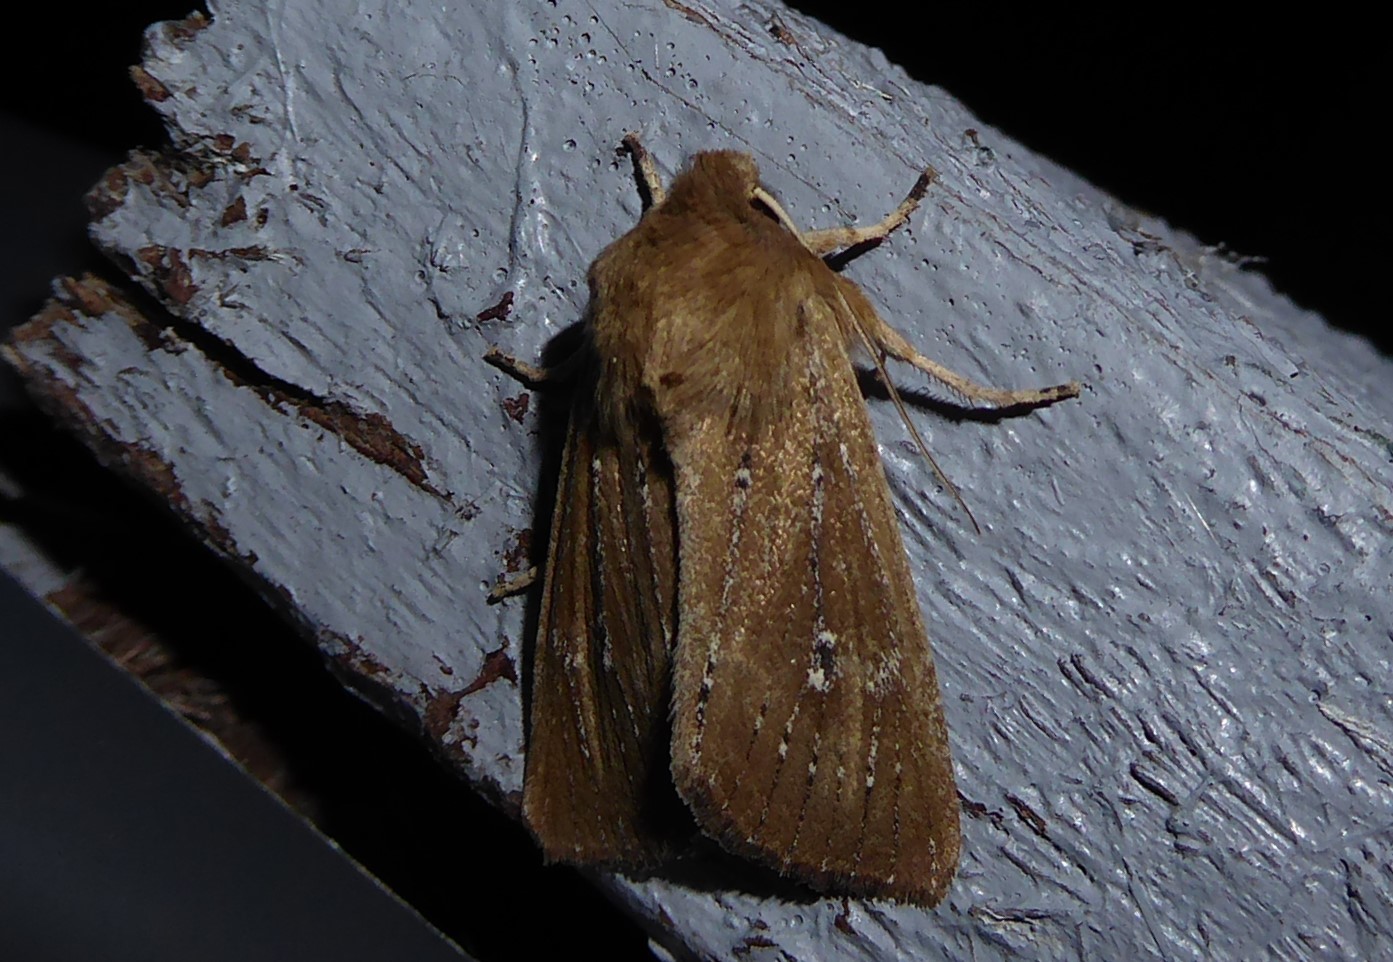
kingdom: Animalia
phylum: Arthropoda
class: Insecta
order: Lepidoptera
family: Noctuidae
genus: Ichneutica
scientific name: Ichneutica
